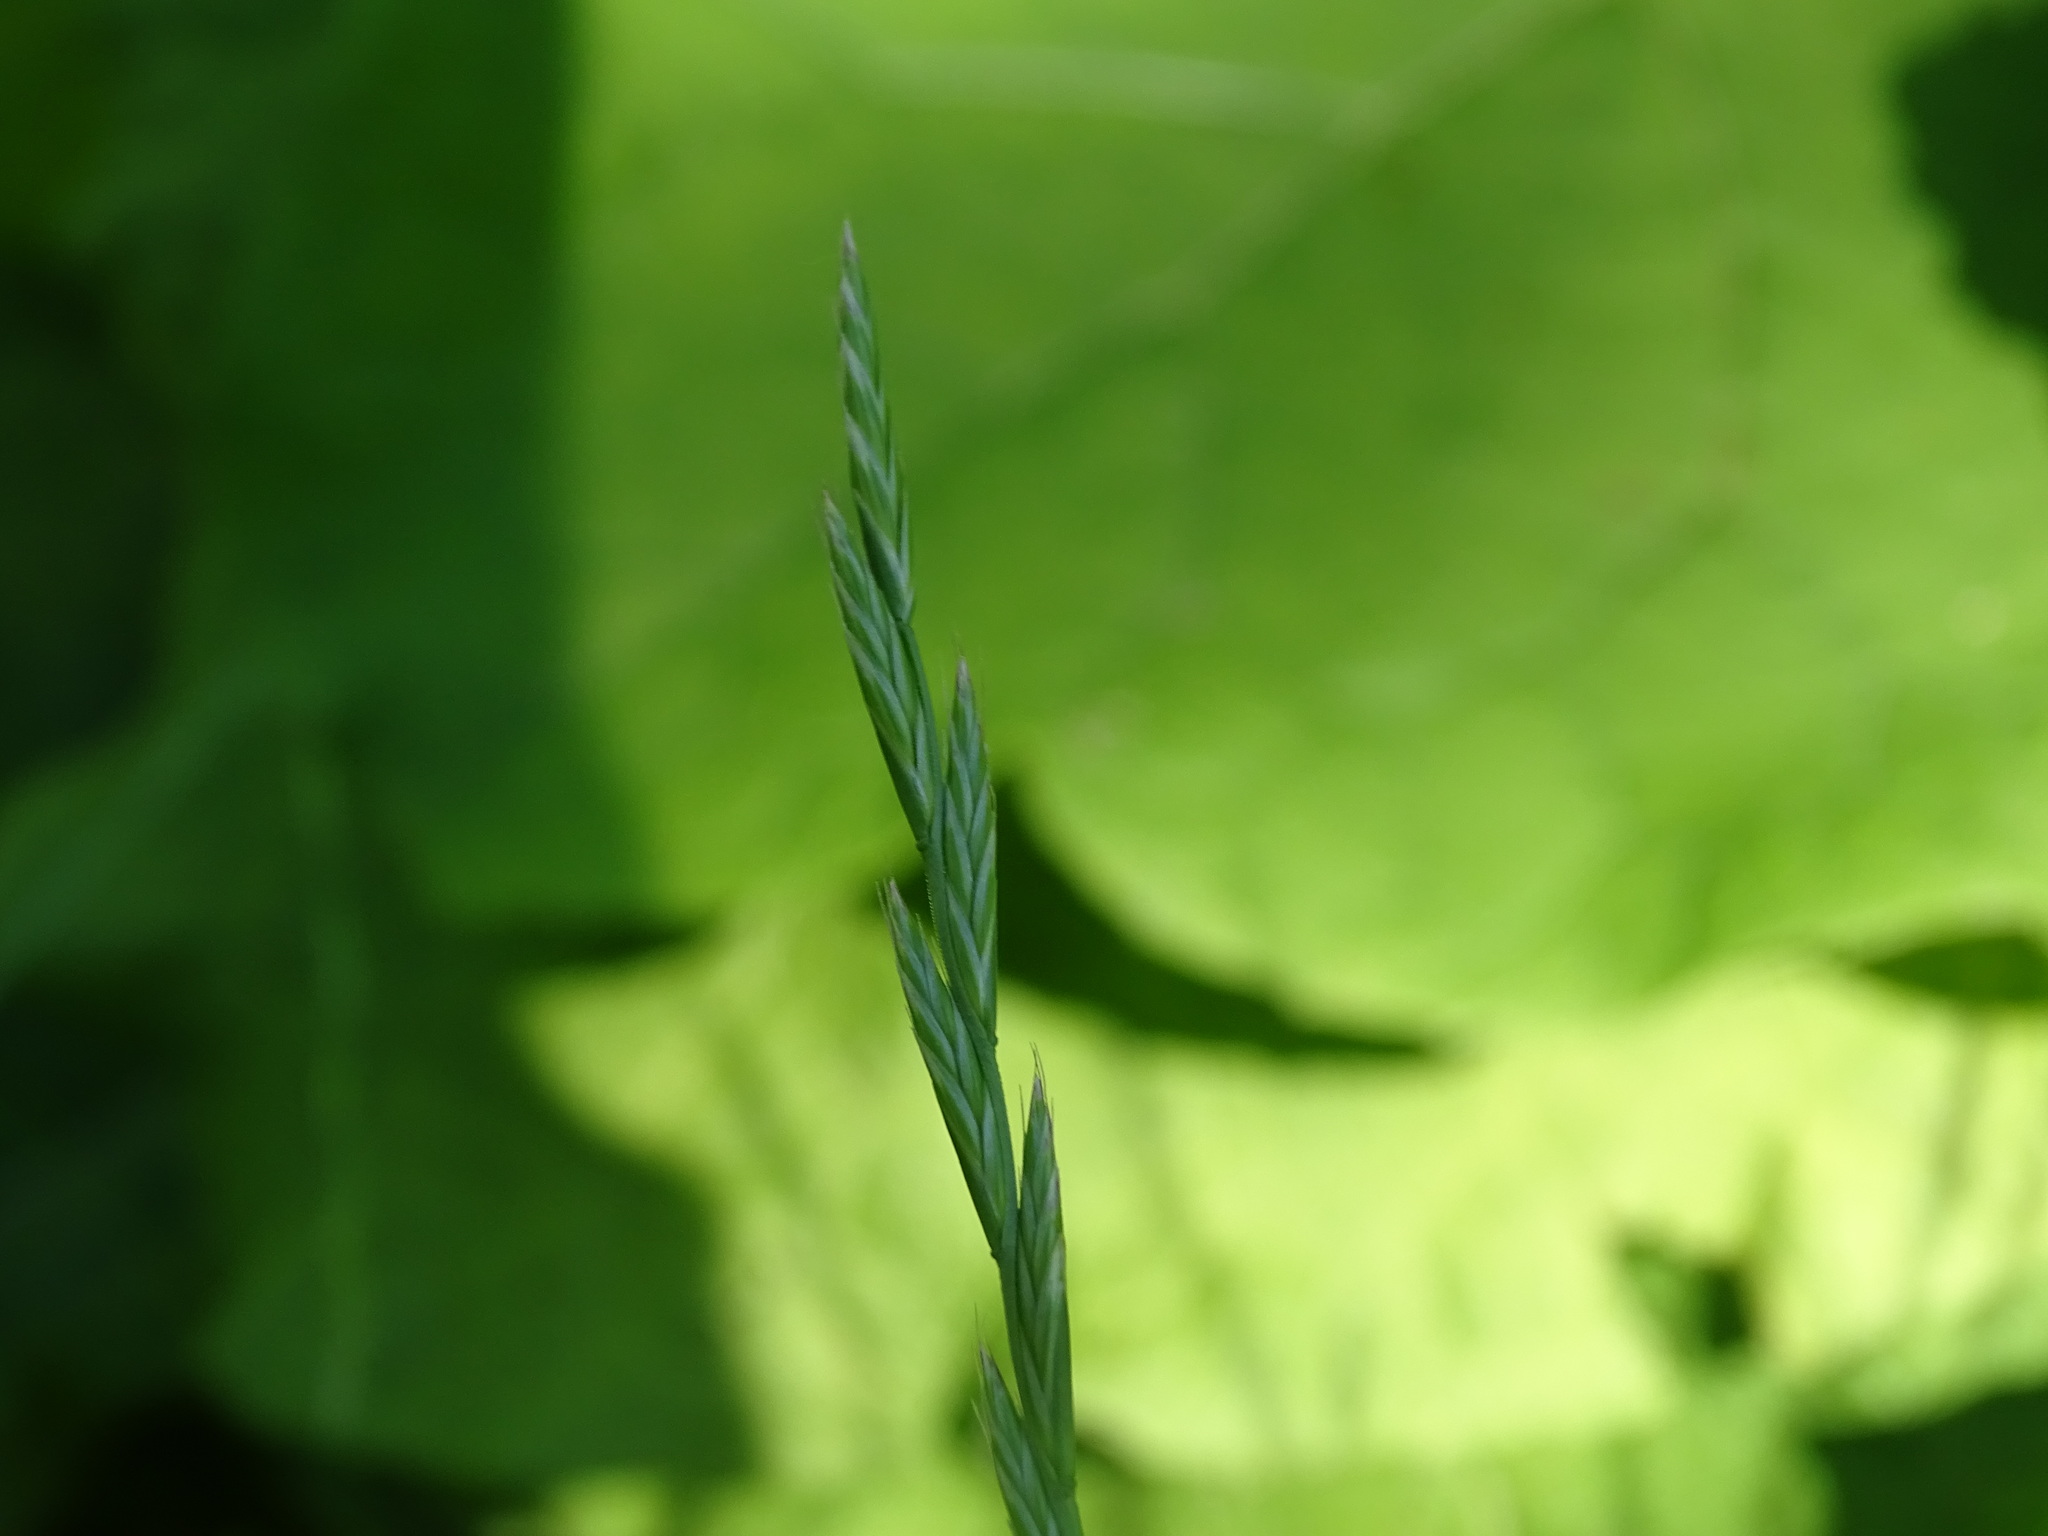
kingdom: Plantae
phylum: Tracheophyta
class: Liliopsida
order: Poales
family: Poaceae
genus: Lolium
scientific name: Lolium perenne
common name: Perennial ryegrass
